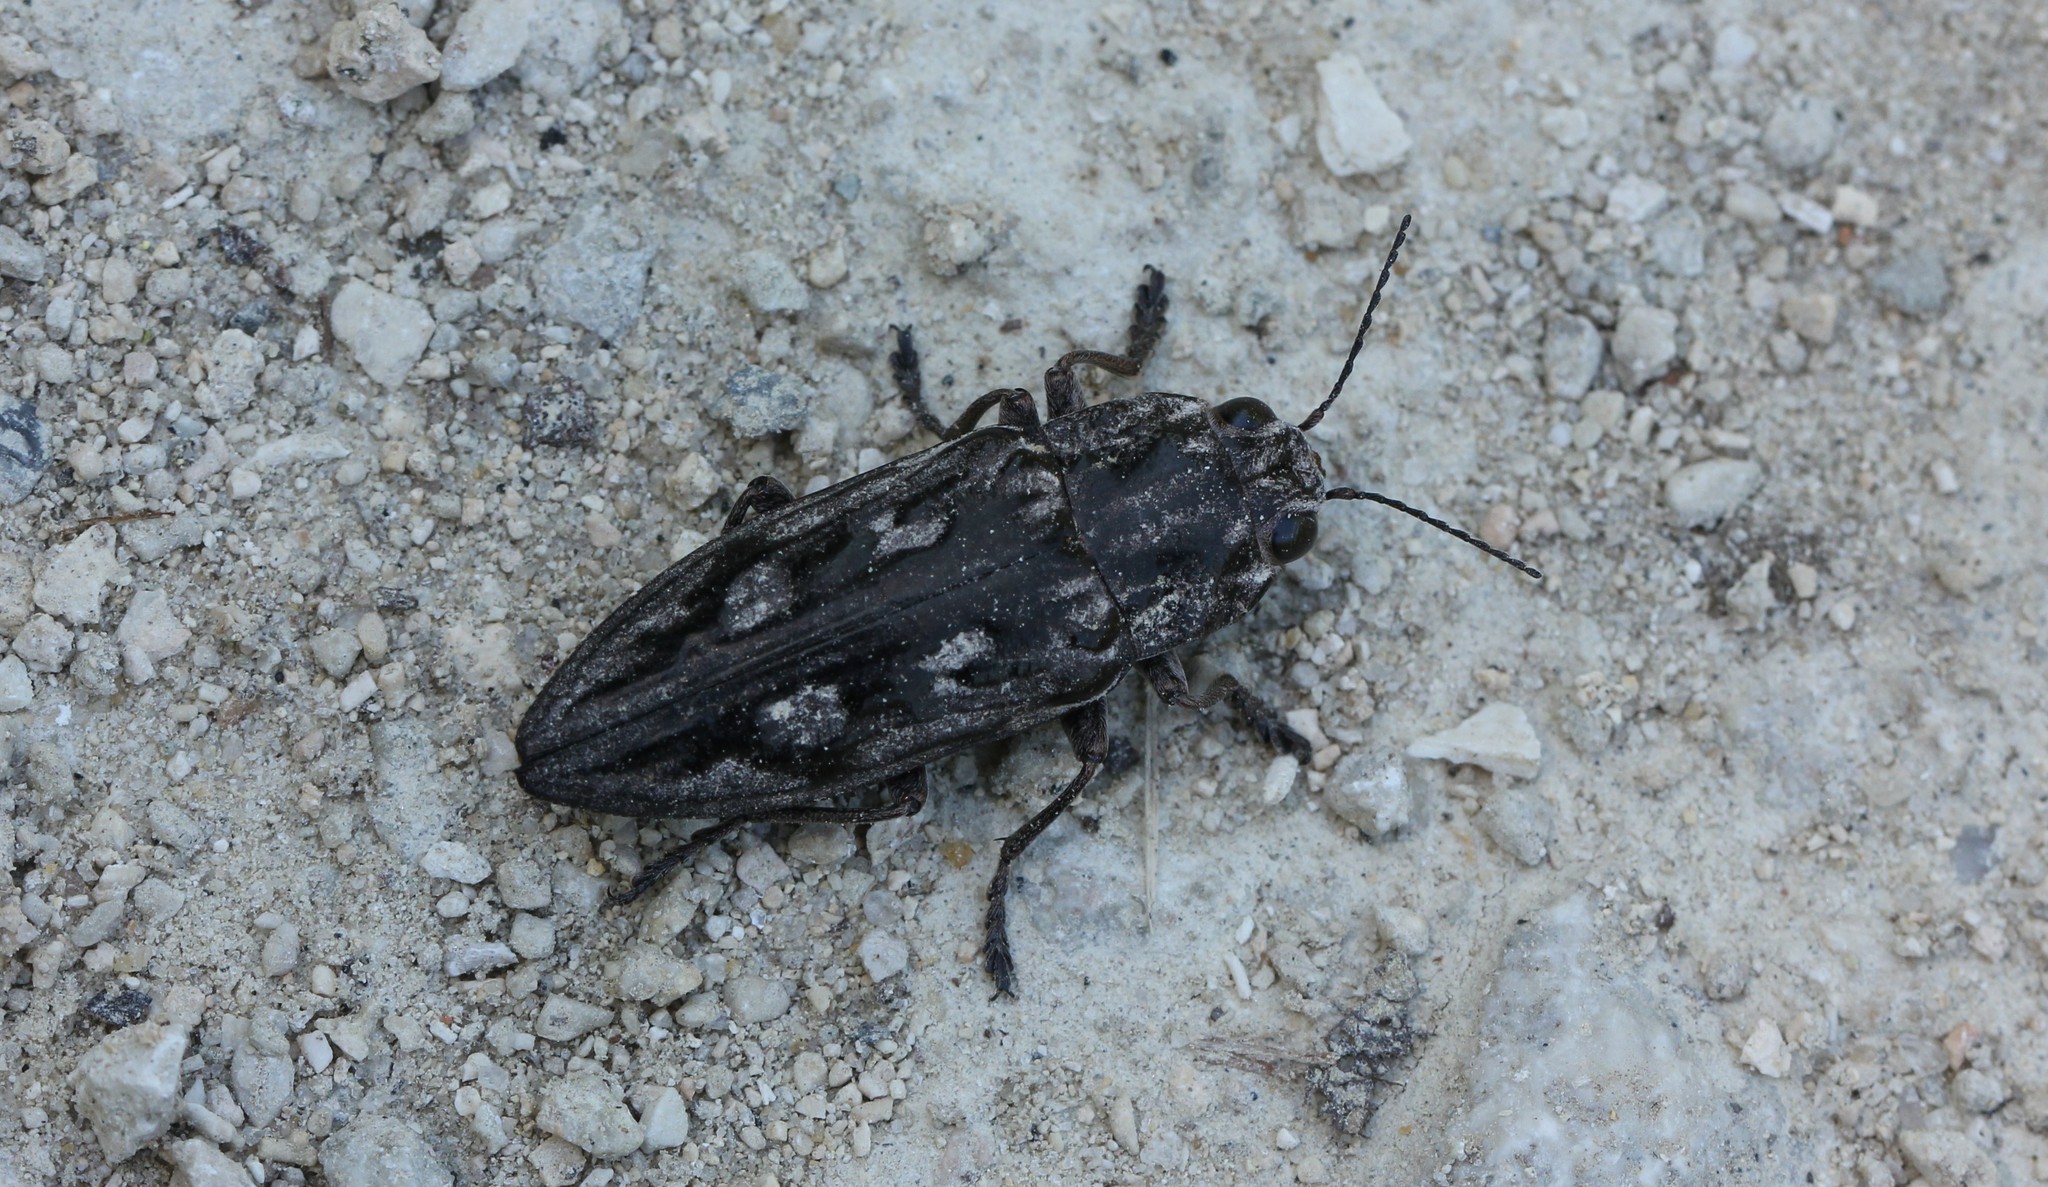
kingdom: Animalia
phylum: Arthropoda
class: Insecta
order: Coleoptera
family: Buprestidae
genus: Chalcophora
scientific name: Chalcophora virginiensis
